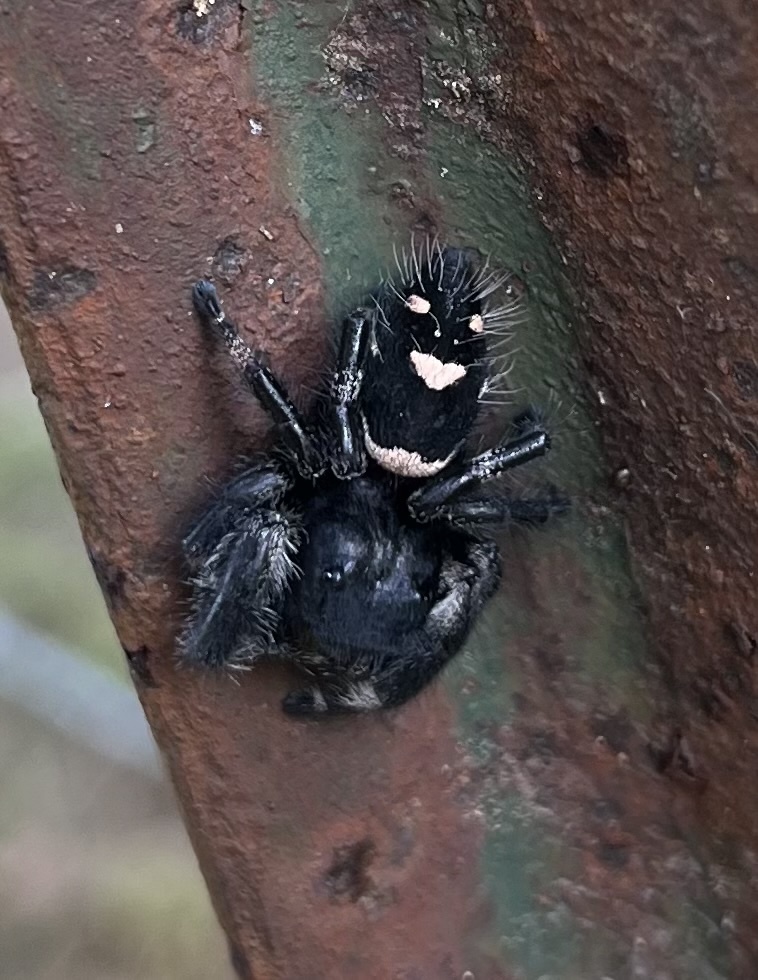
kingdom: Animalia
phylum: Arthropoda
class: Arachnida
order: Araneae
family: Salticidae
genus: Phidippus
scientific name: Phidippus regius
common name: Regal jumper
